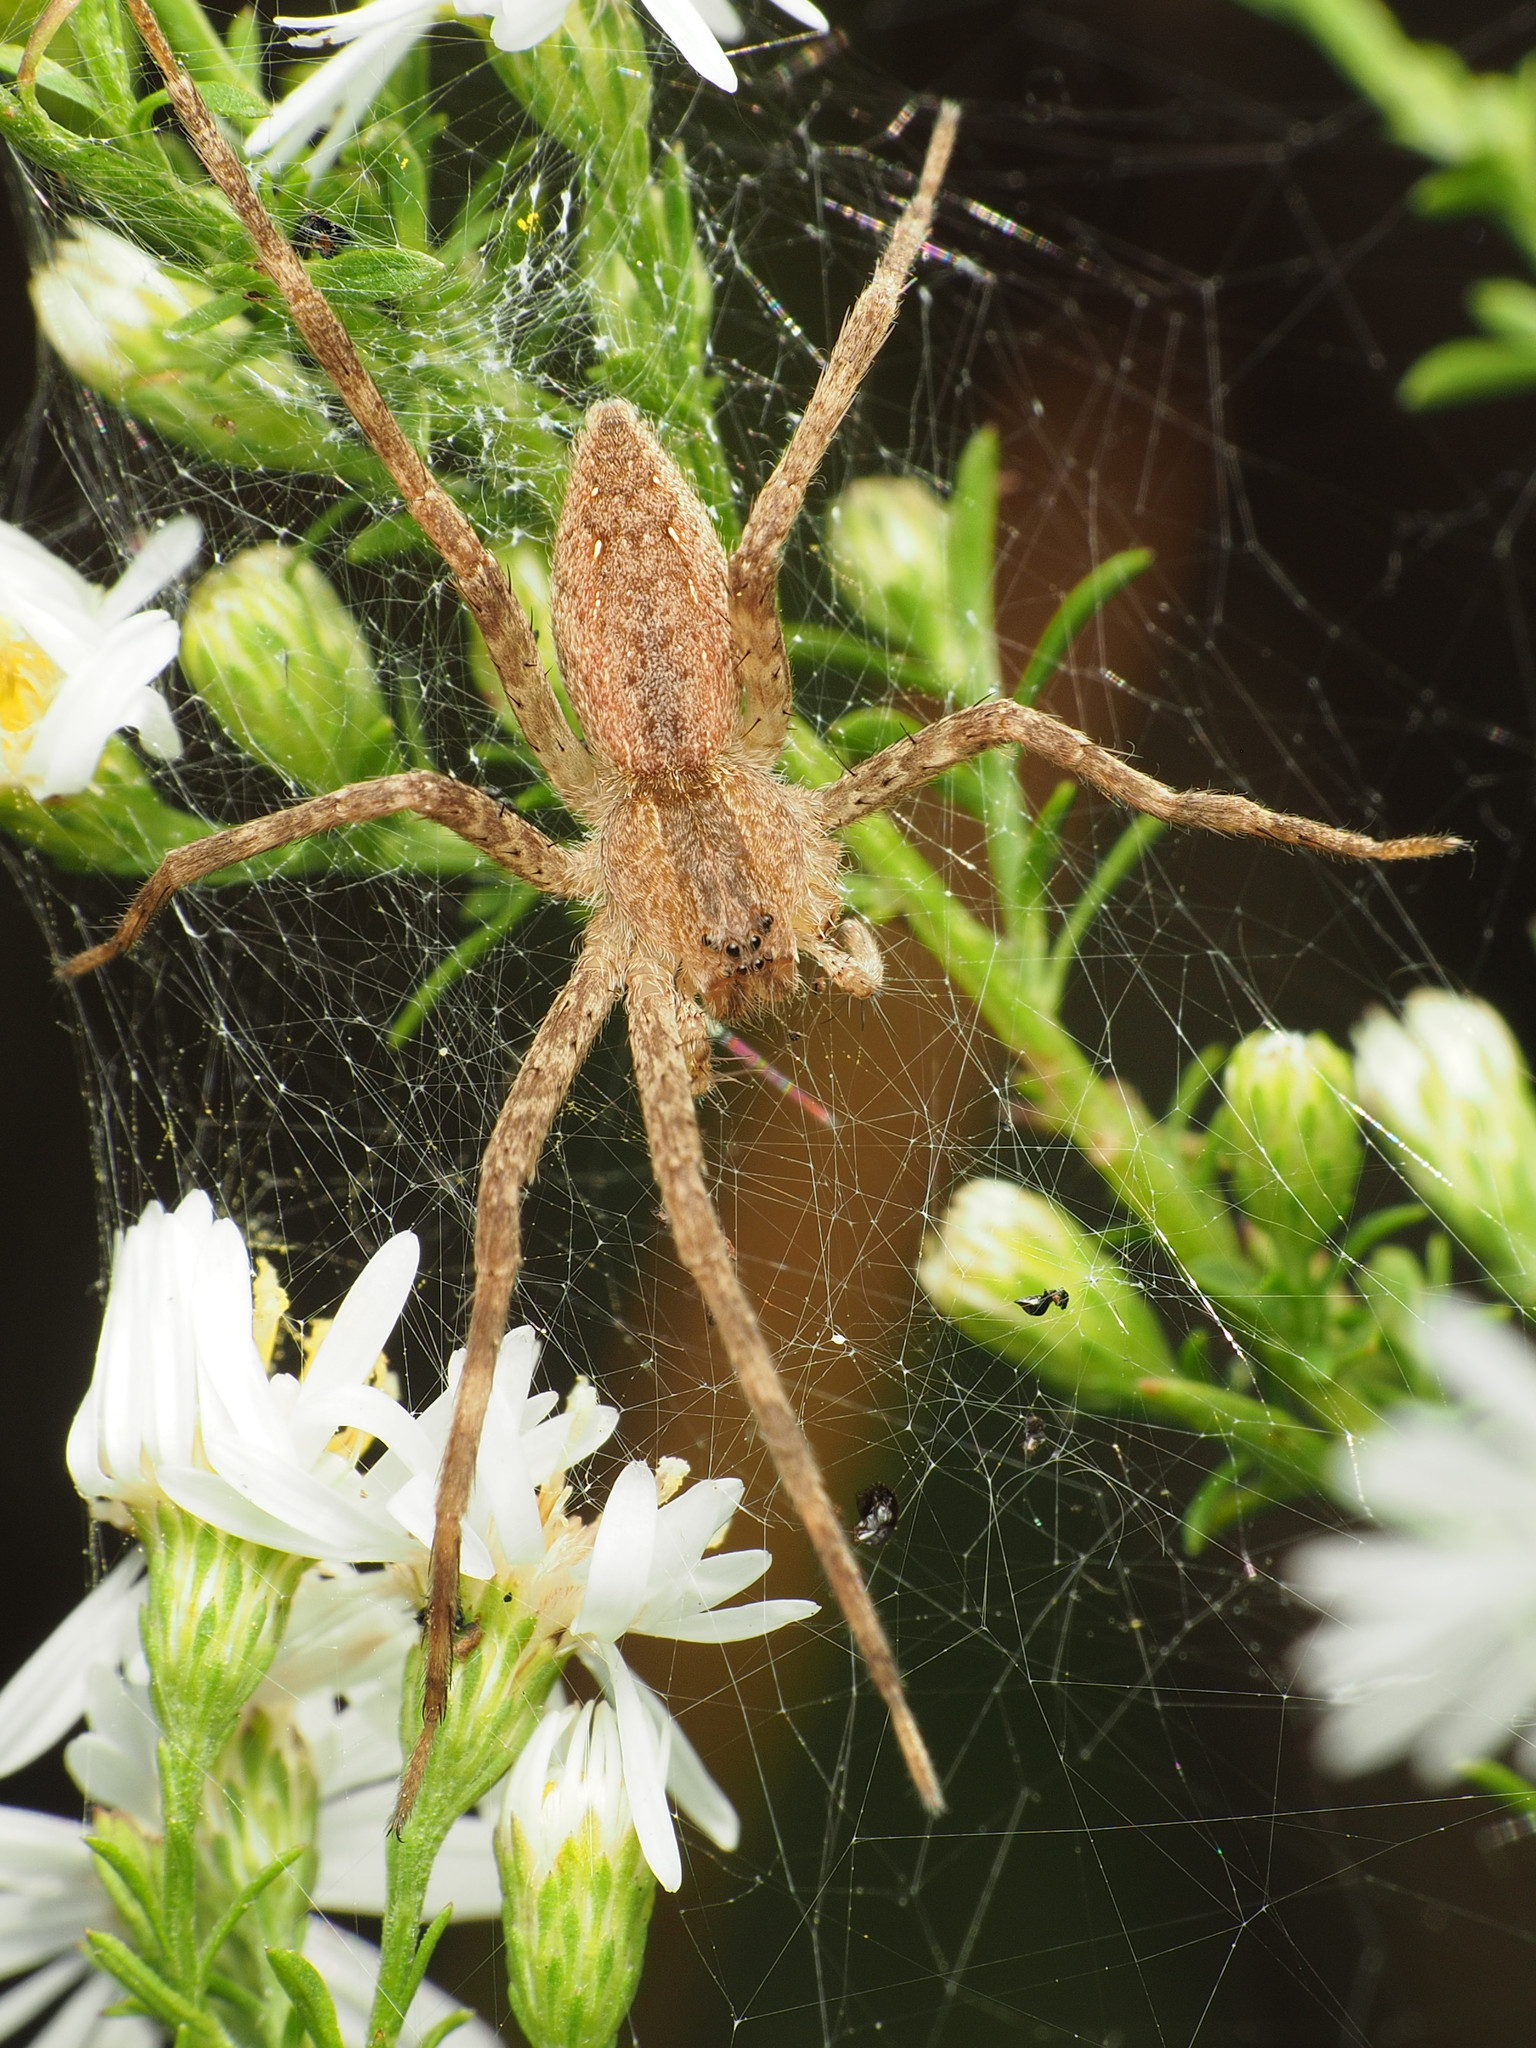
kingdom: Animalia
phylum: Arthropoda
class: Arachnida
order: Araneae
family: Pisauridae
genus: Pisaurina
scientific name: Pisaurina mira
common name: American nursery web spider
